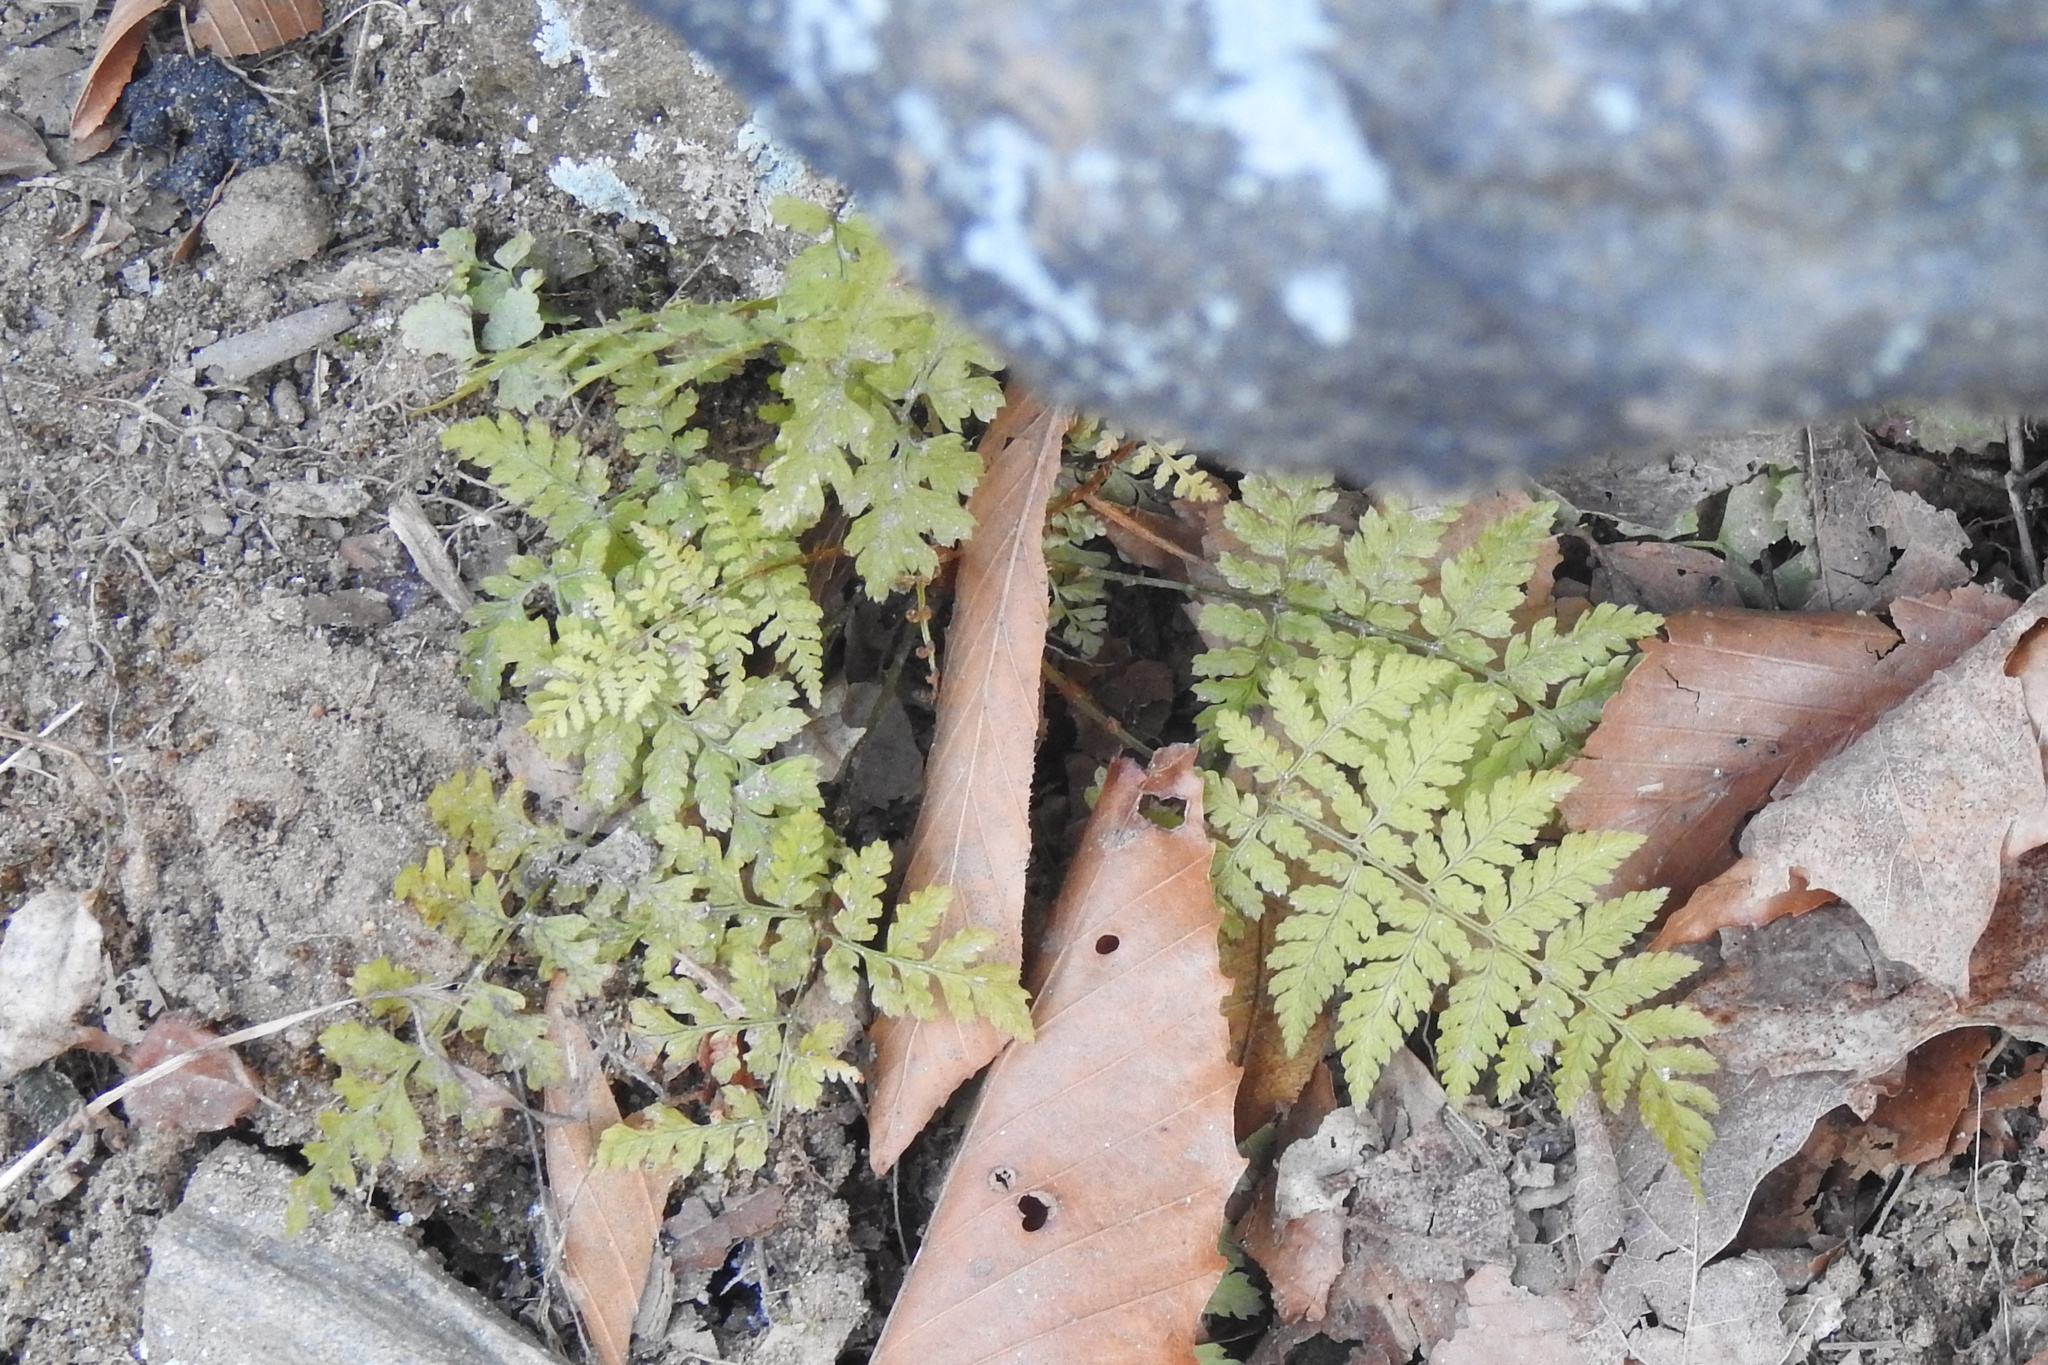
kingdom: Plantae
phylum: Tracheophyta
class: Polypodiopsida
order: Polypodiales
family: Dryopteridaceae
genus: Dryopteris
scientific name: Dryopteris intermedia
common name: Evergreen wood fern
